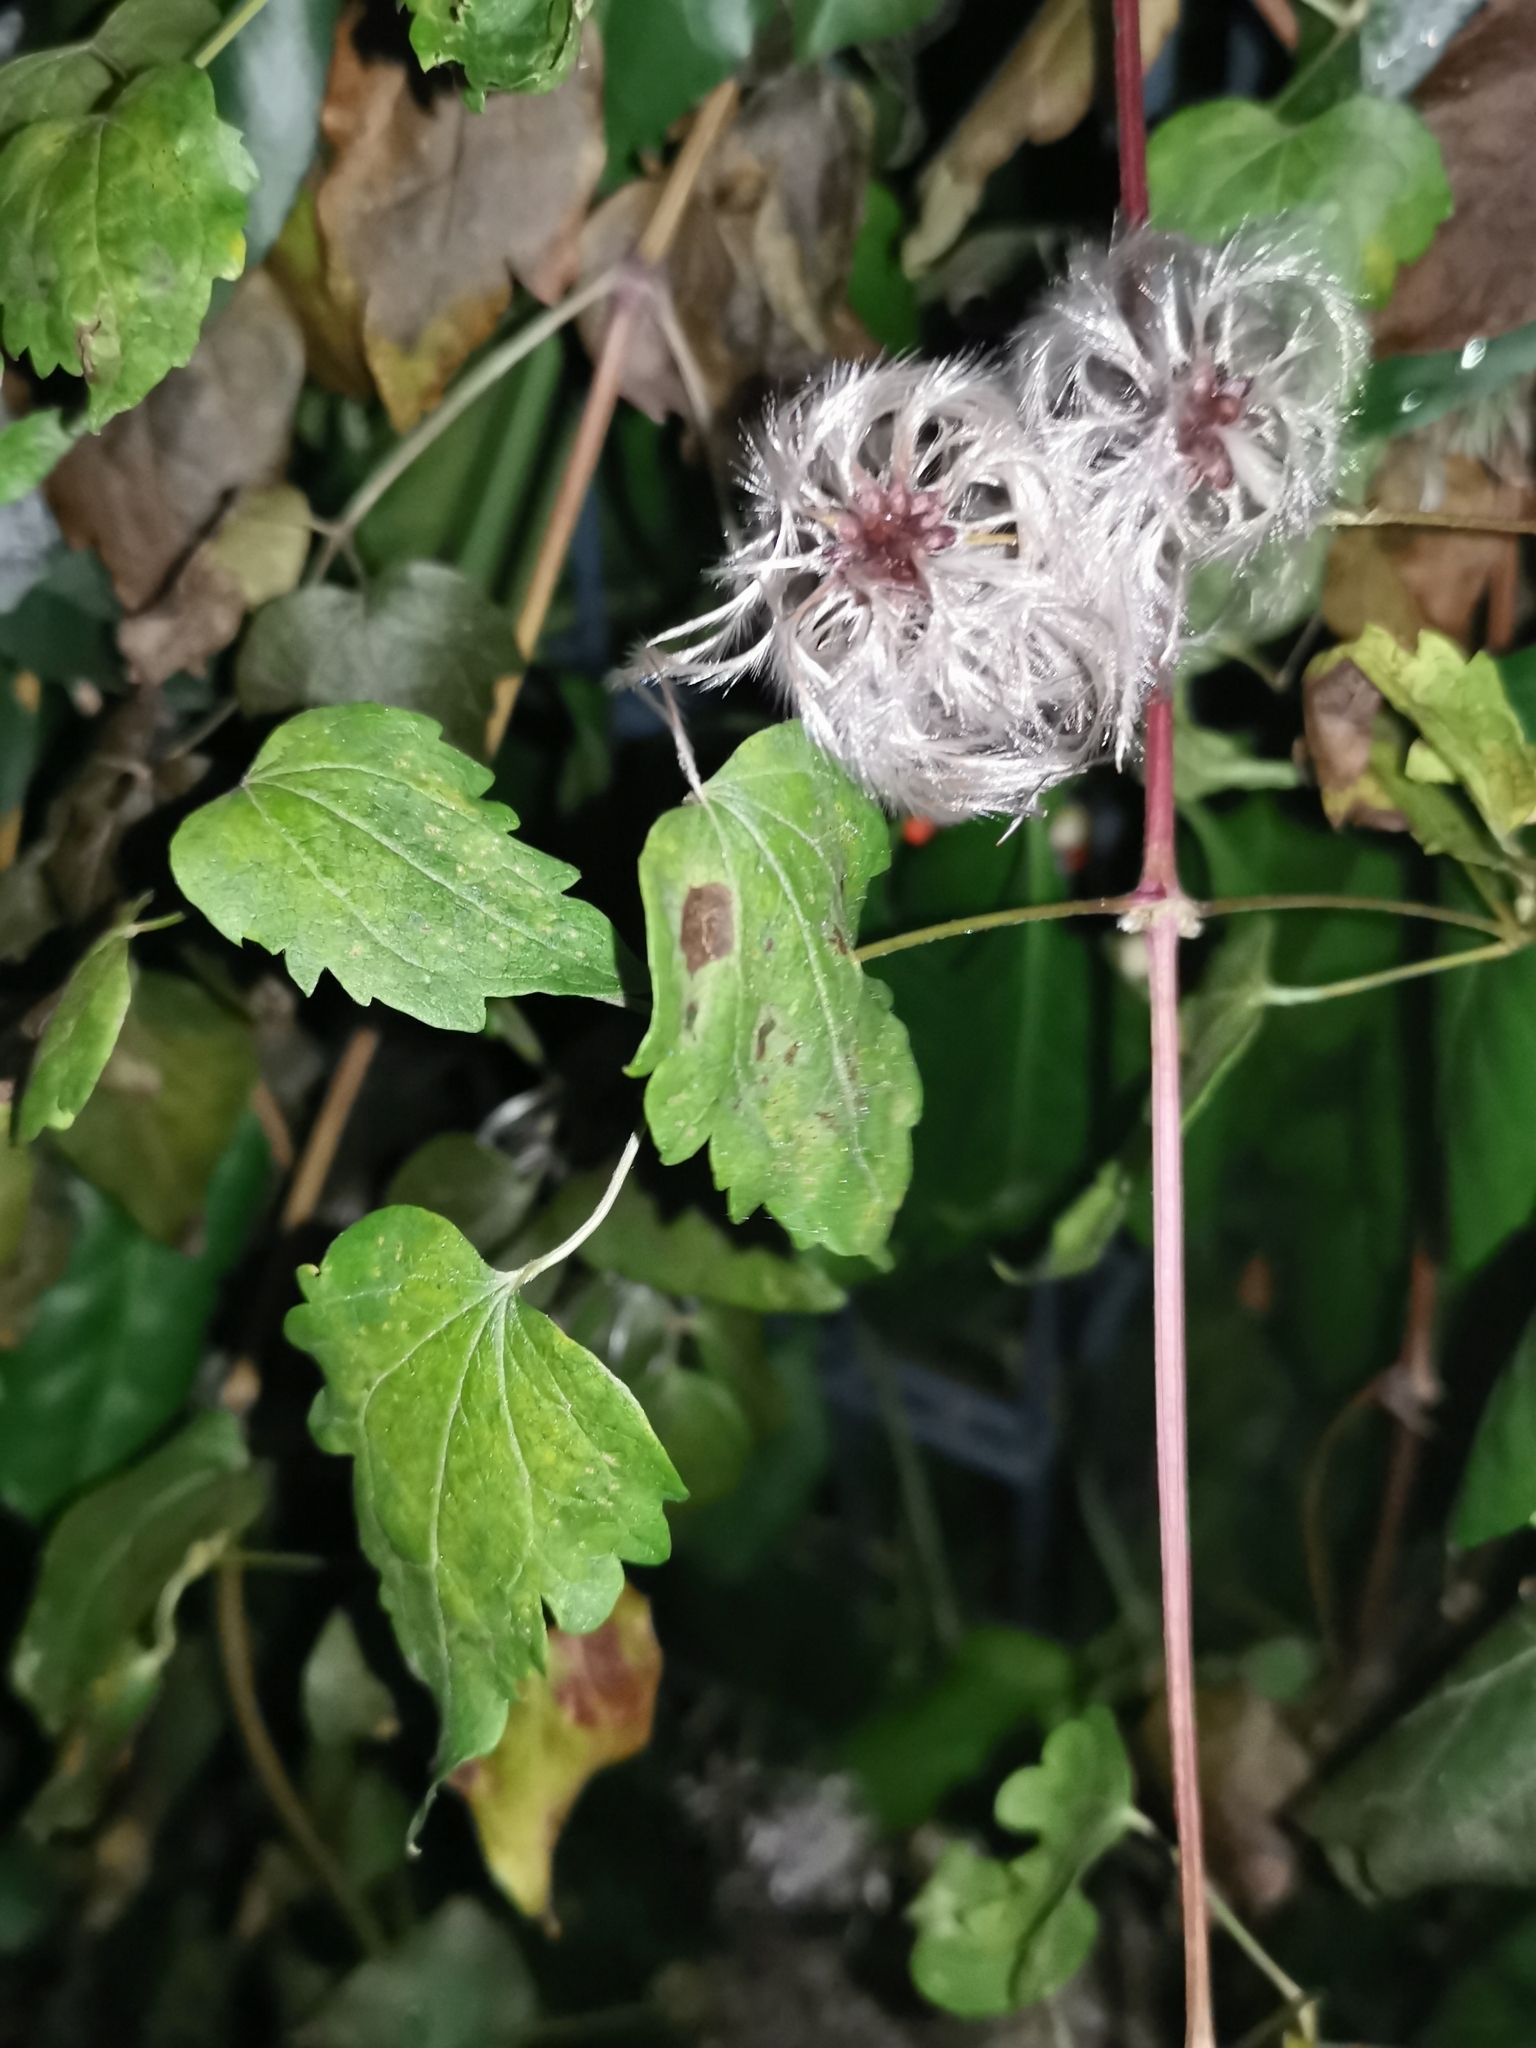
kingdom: Plantae
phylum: Tracheophyta
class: Magnoliopsida
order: Ranunculales
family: Ranunculaceae
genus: Clematis
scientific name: Clematis vitalba
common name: Evergreen clematis
